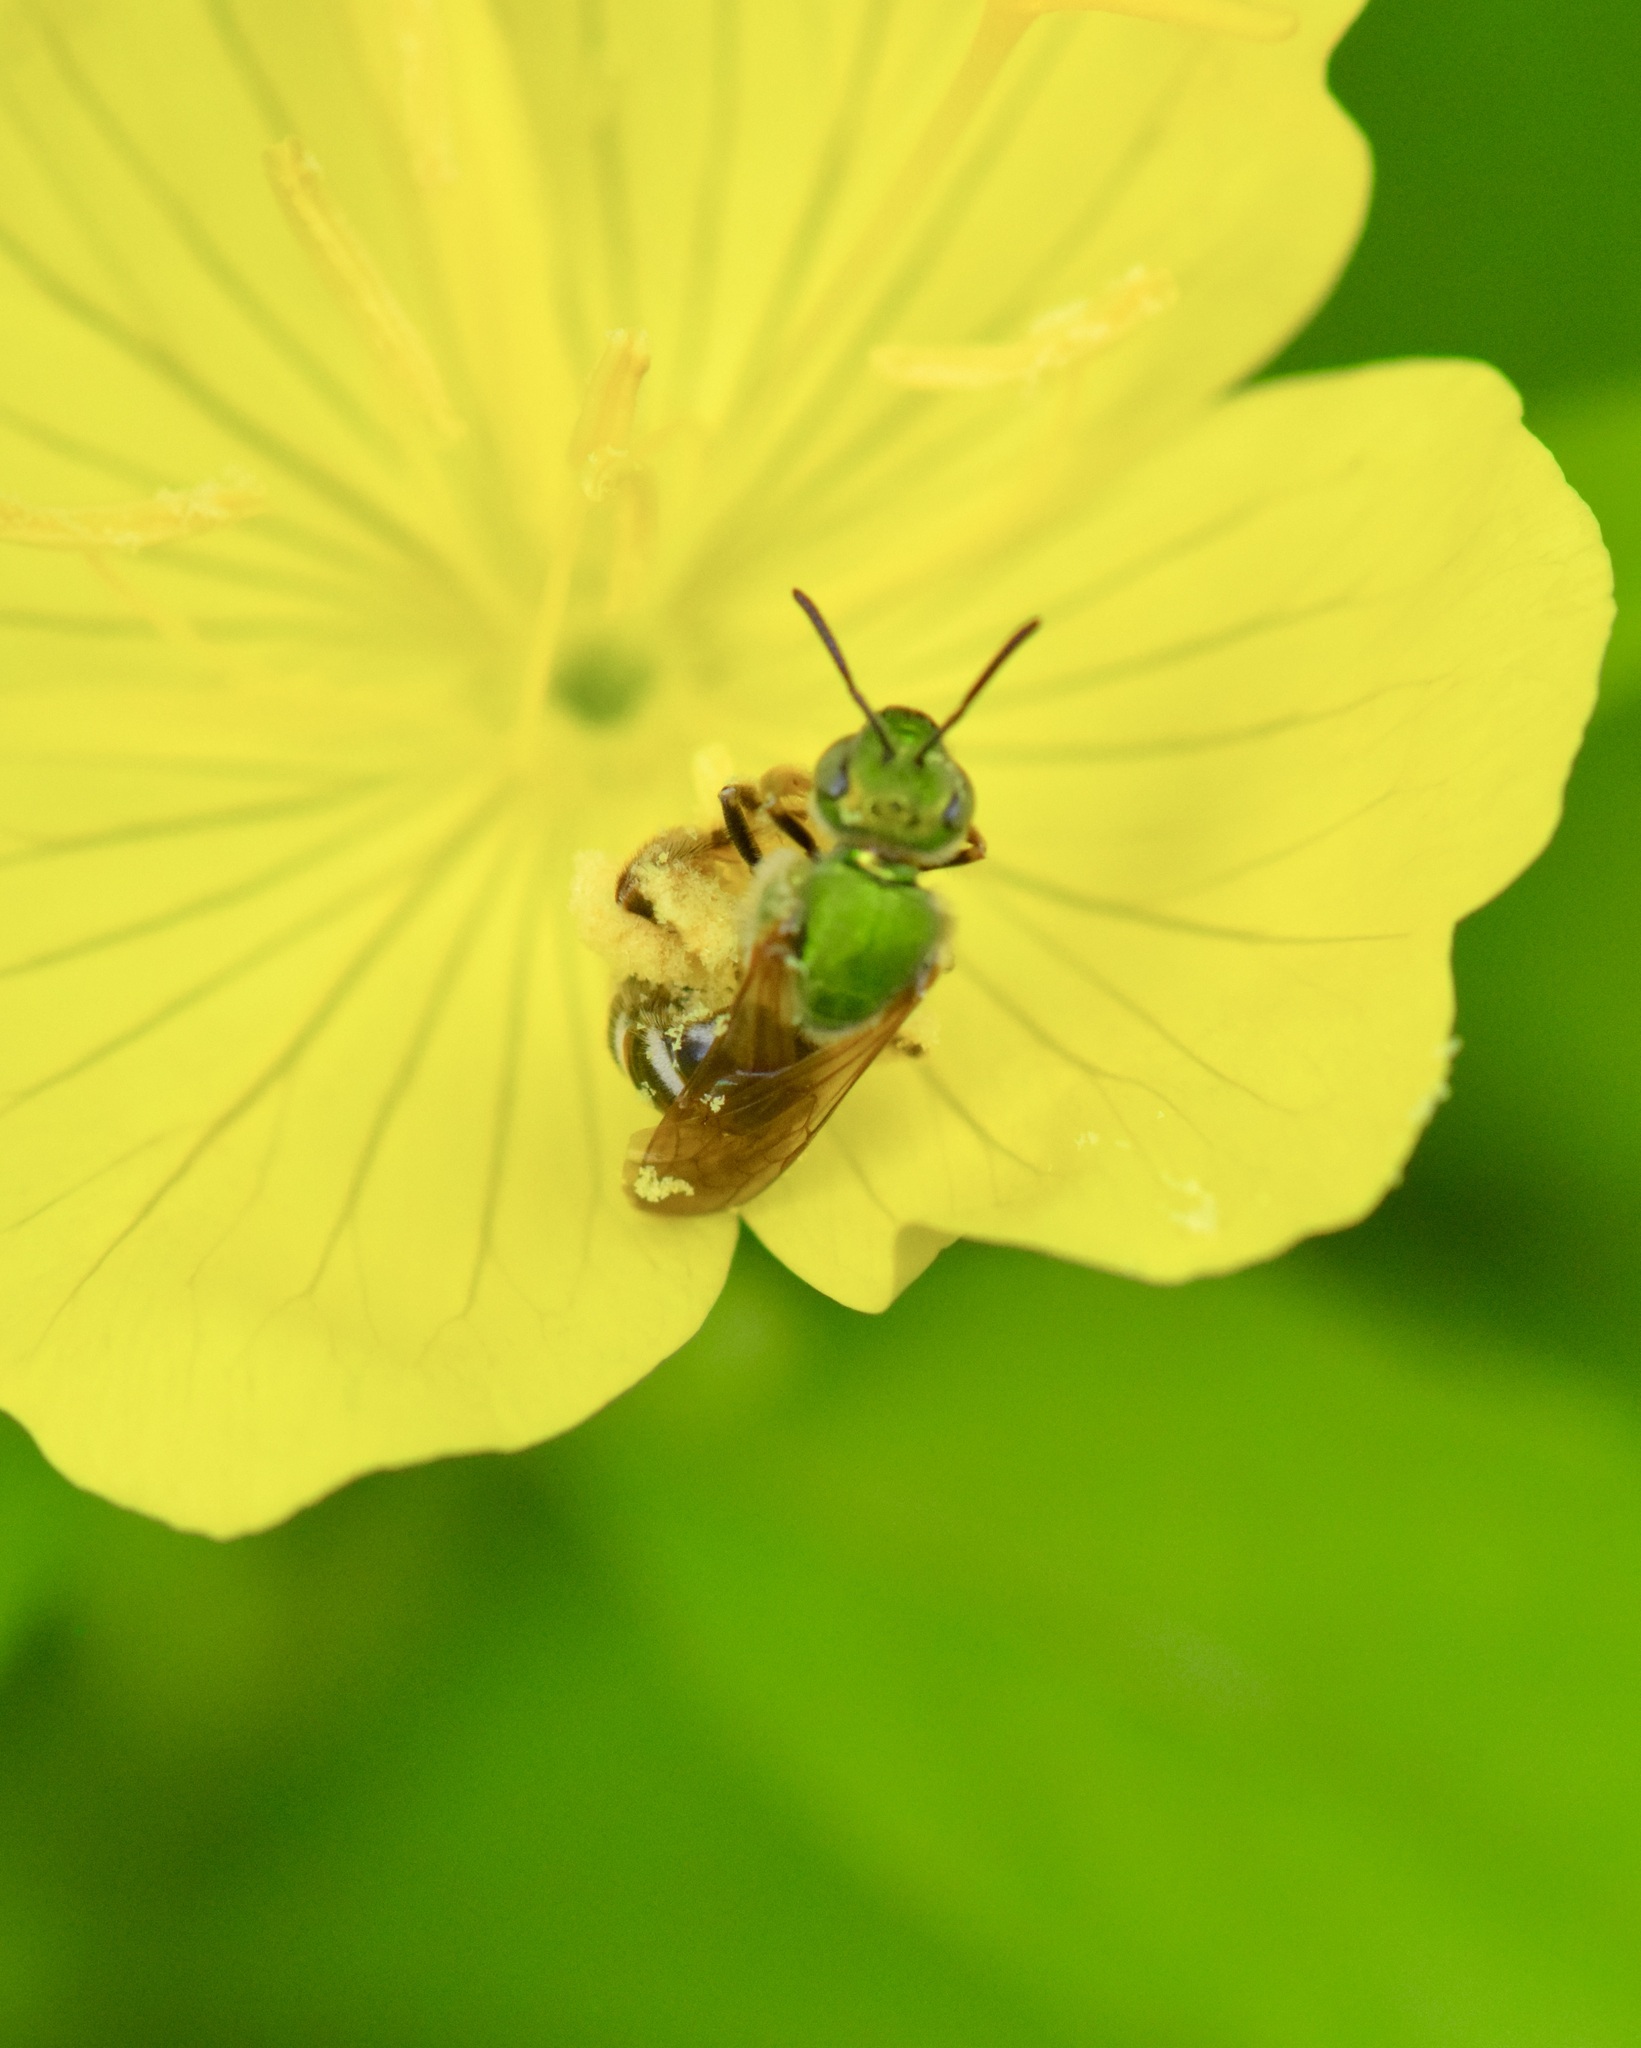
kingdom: Animalia
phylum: Arthropoda
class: Insecta
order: Hymenoptera
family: Halictidae
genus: Agapostemon
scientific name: Agapostemon virescens
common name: Bicolored striped sweat bee
